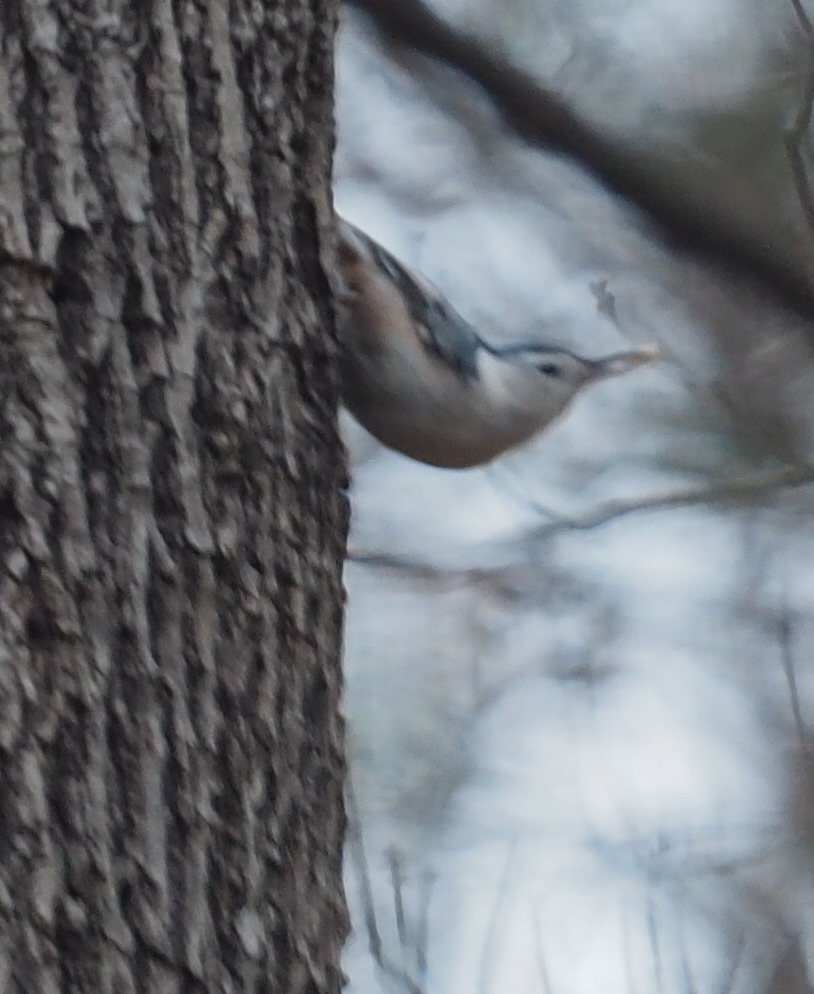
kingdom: Animalia
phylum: Chordata
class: Aves
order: Passeriformes
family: Sittidae
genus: Sitta
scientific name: Sitta carolinensis
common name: White-breasted nuthatch
